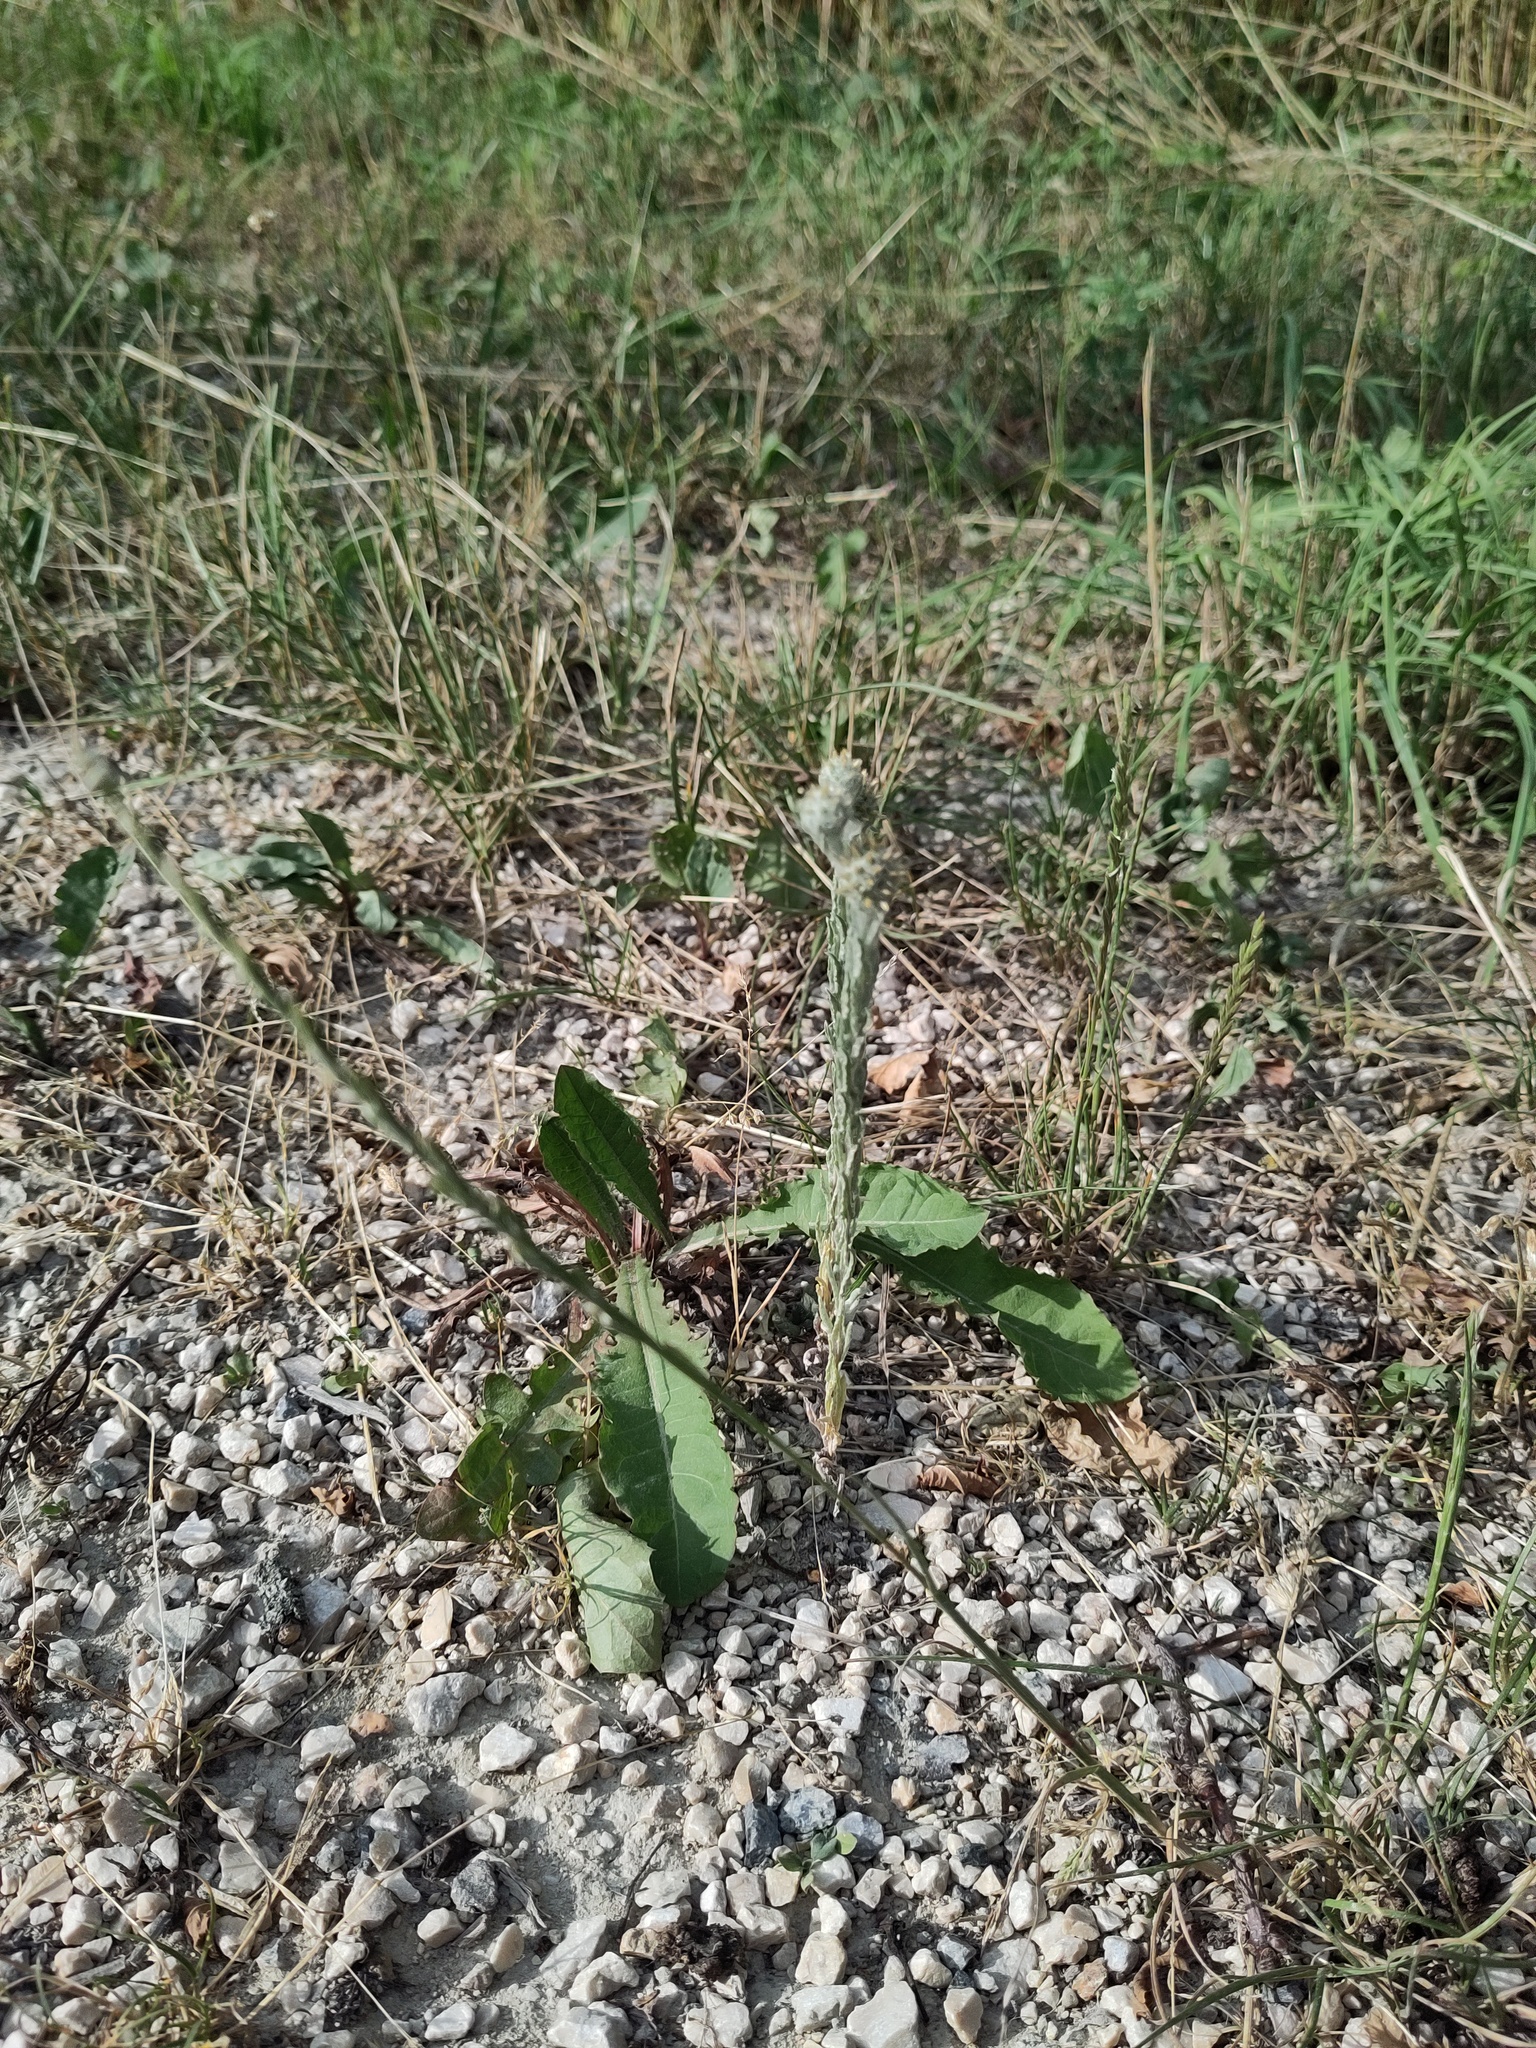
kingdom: Plantae
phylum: Tracheophyta
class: Magnoliopsida
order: Asterales
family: Asteraceae
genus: Filago
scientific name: Filago germanica
